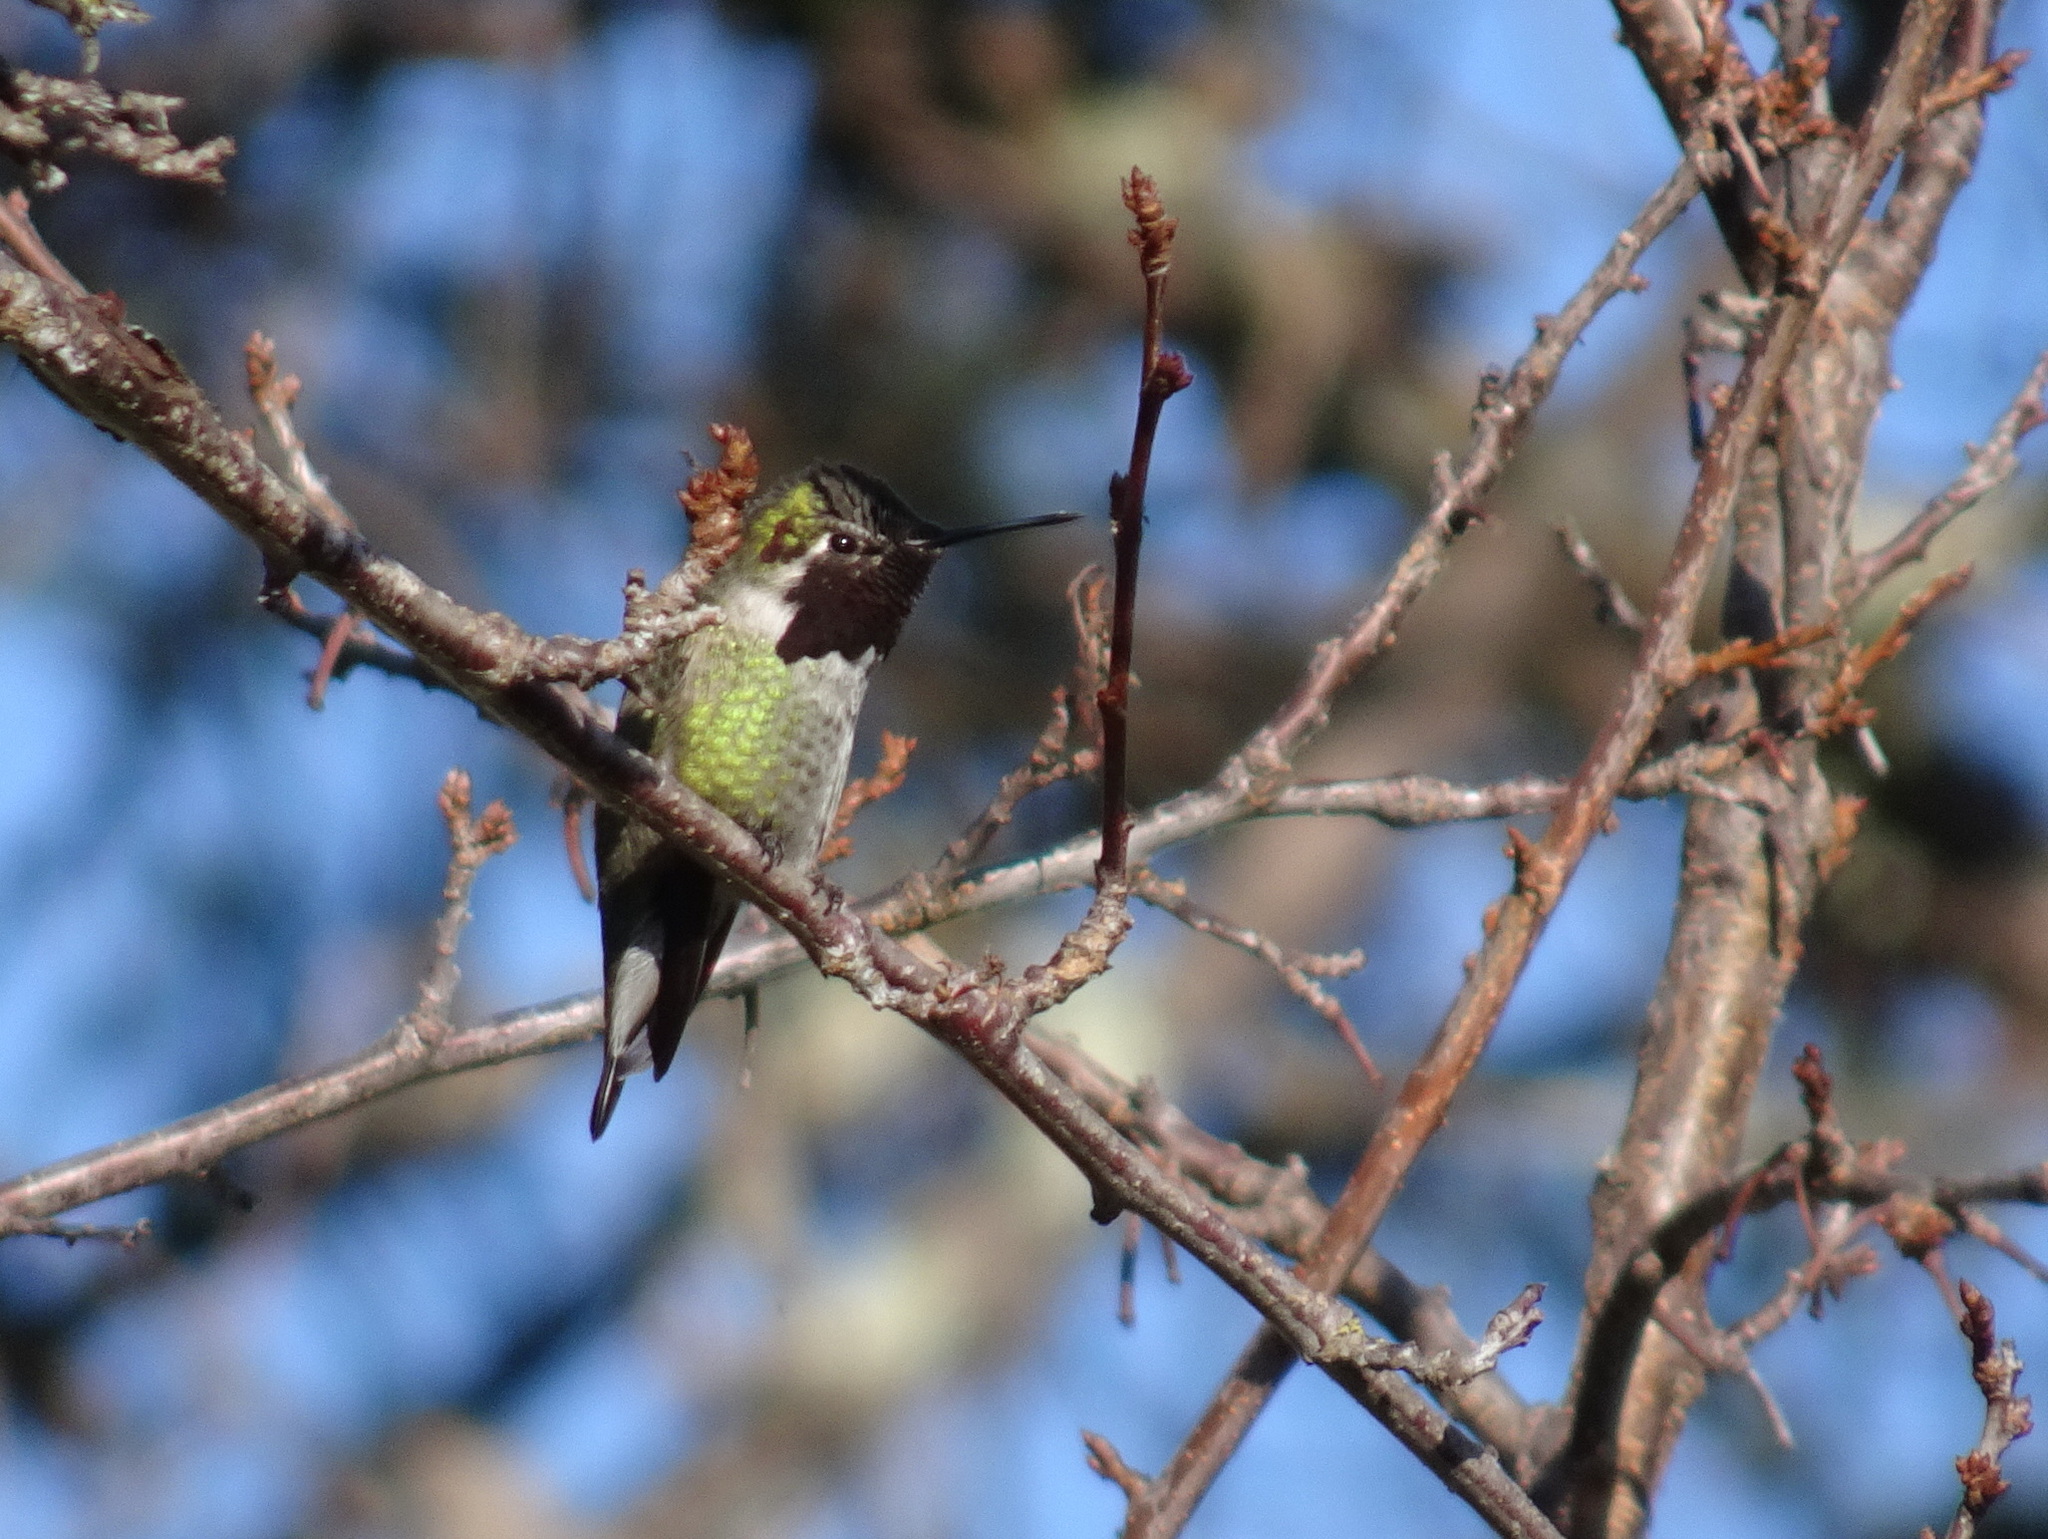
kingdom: Animalia
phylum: Chordata
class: Aves
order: Apodiformes
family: Trochilidae
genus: Calypte
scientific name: Calypte anna
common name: Anna's hummingbird
